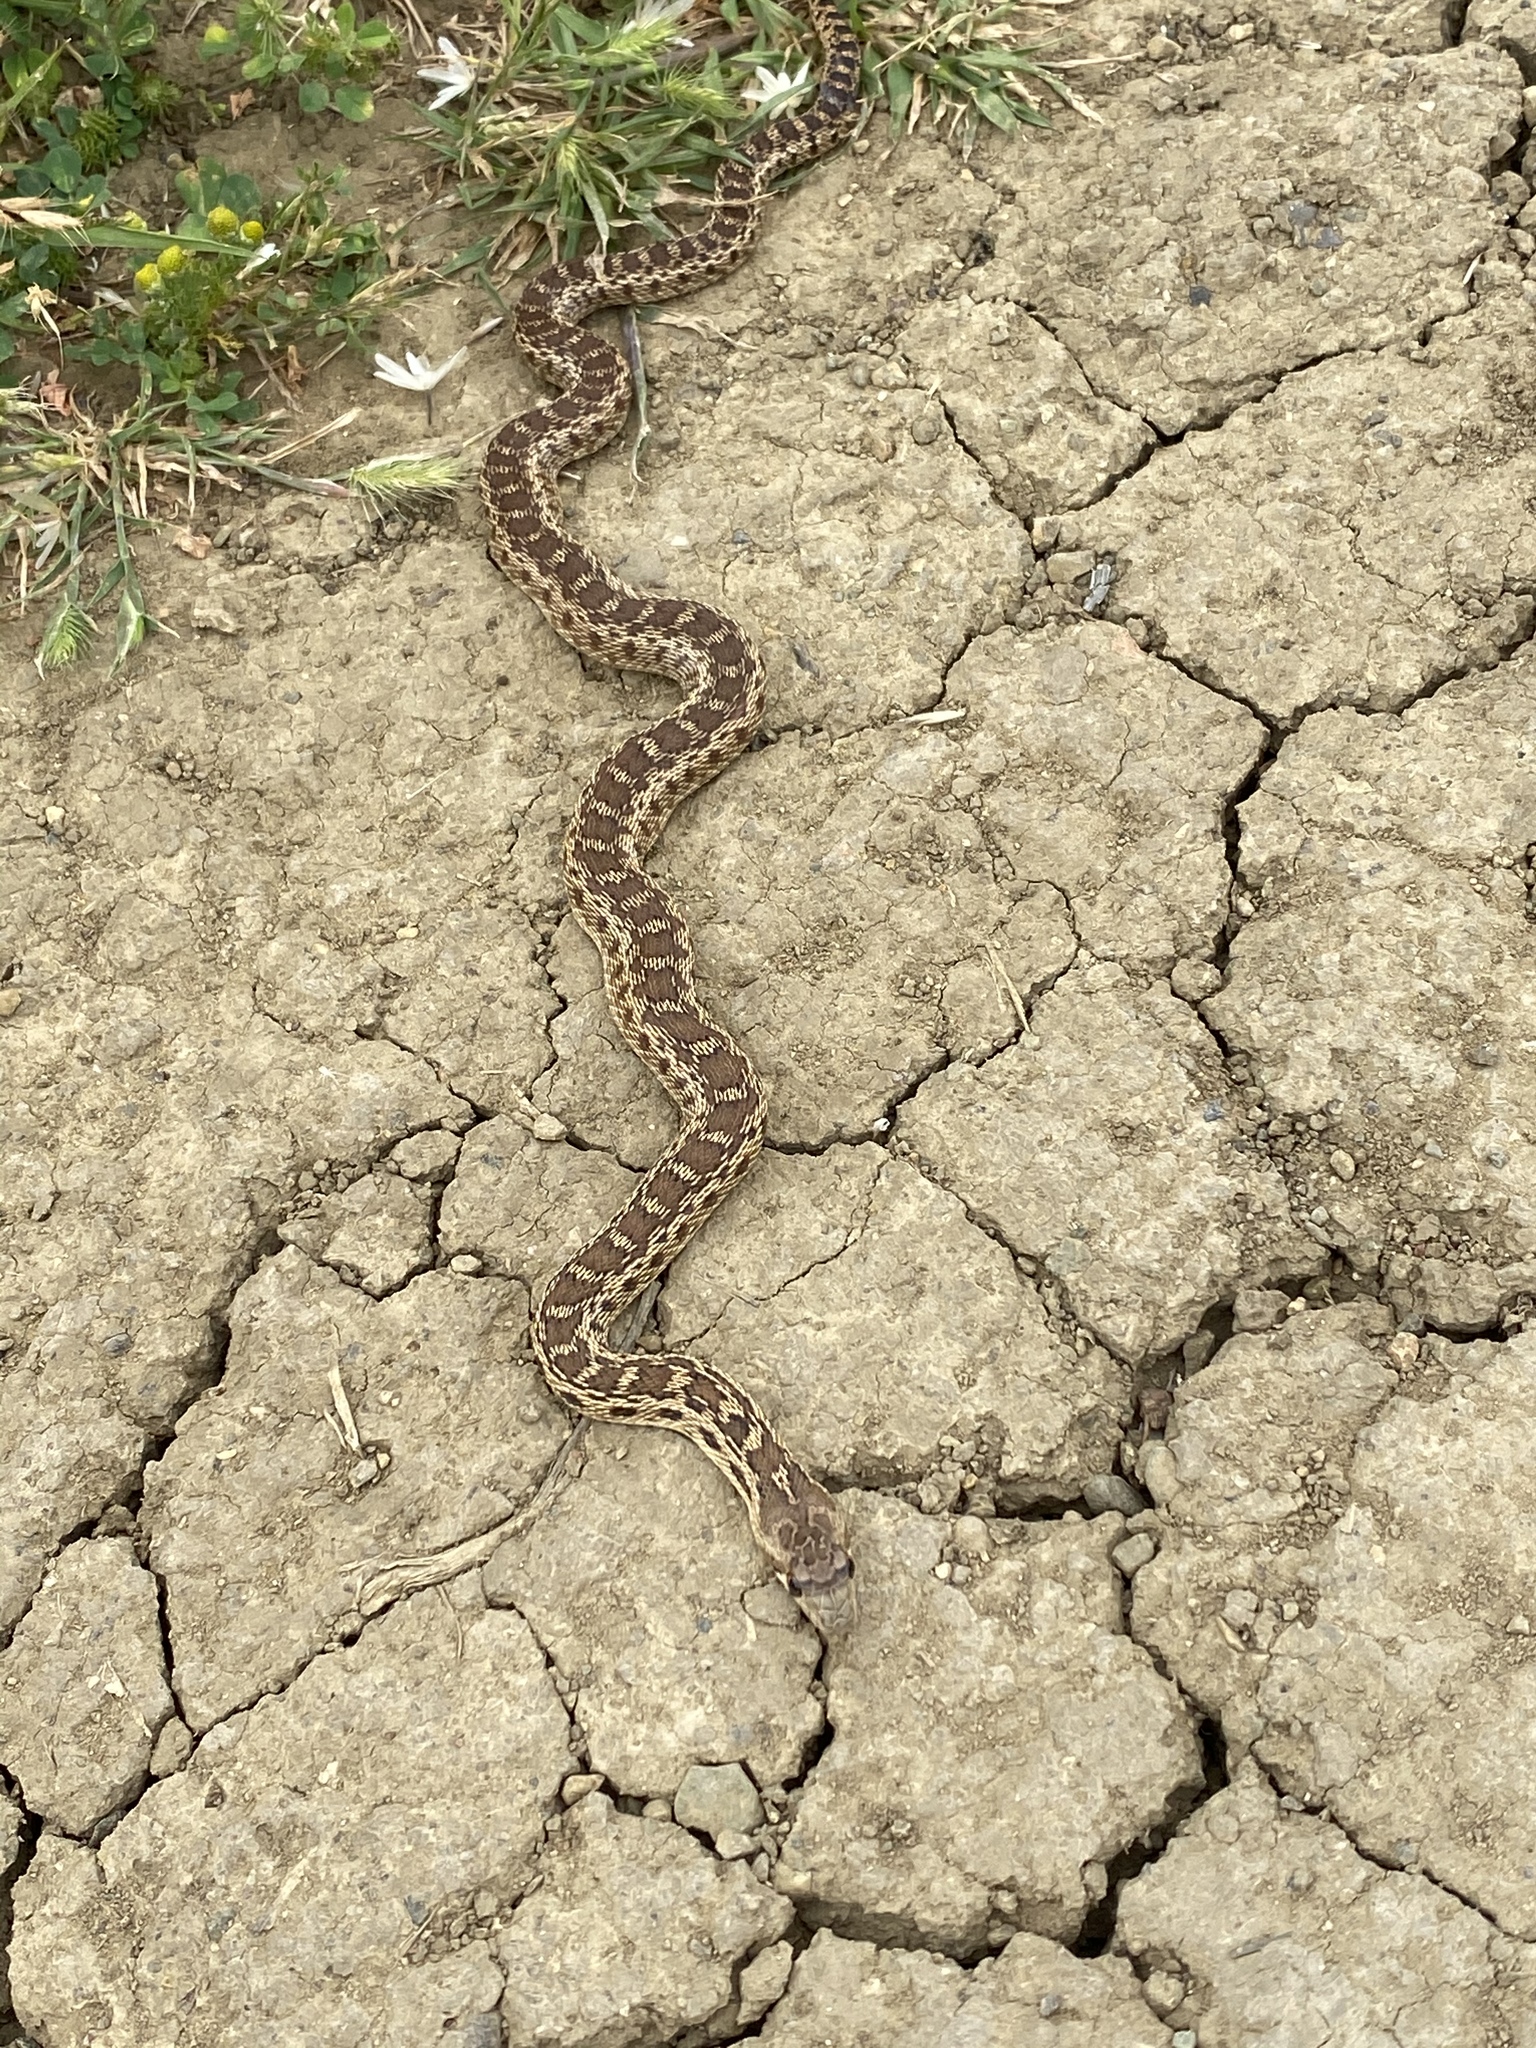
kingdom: Animalia
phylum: Chordata
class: Squamata
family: Colubridae
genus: Pituophis
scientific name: Pituophis catenifer
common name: Gopher snake
